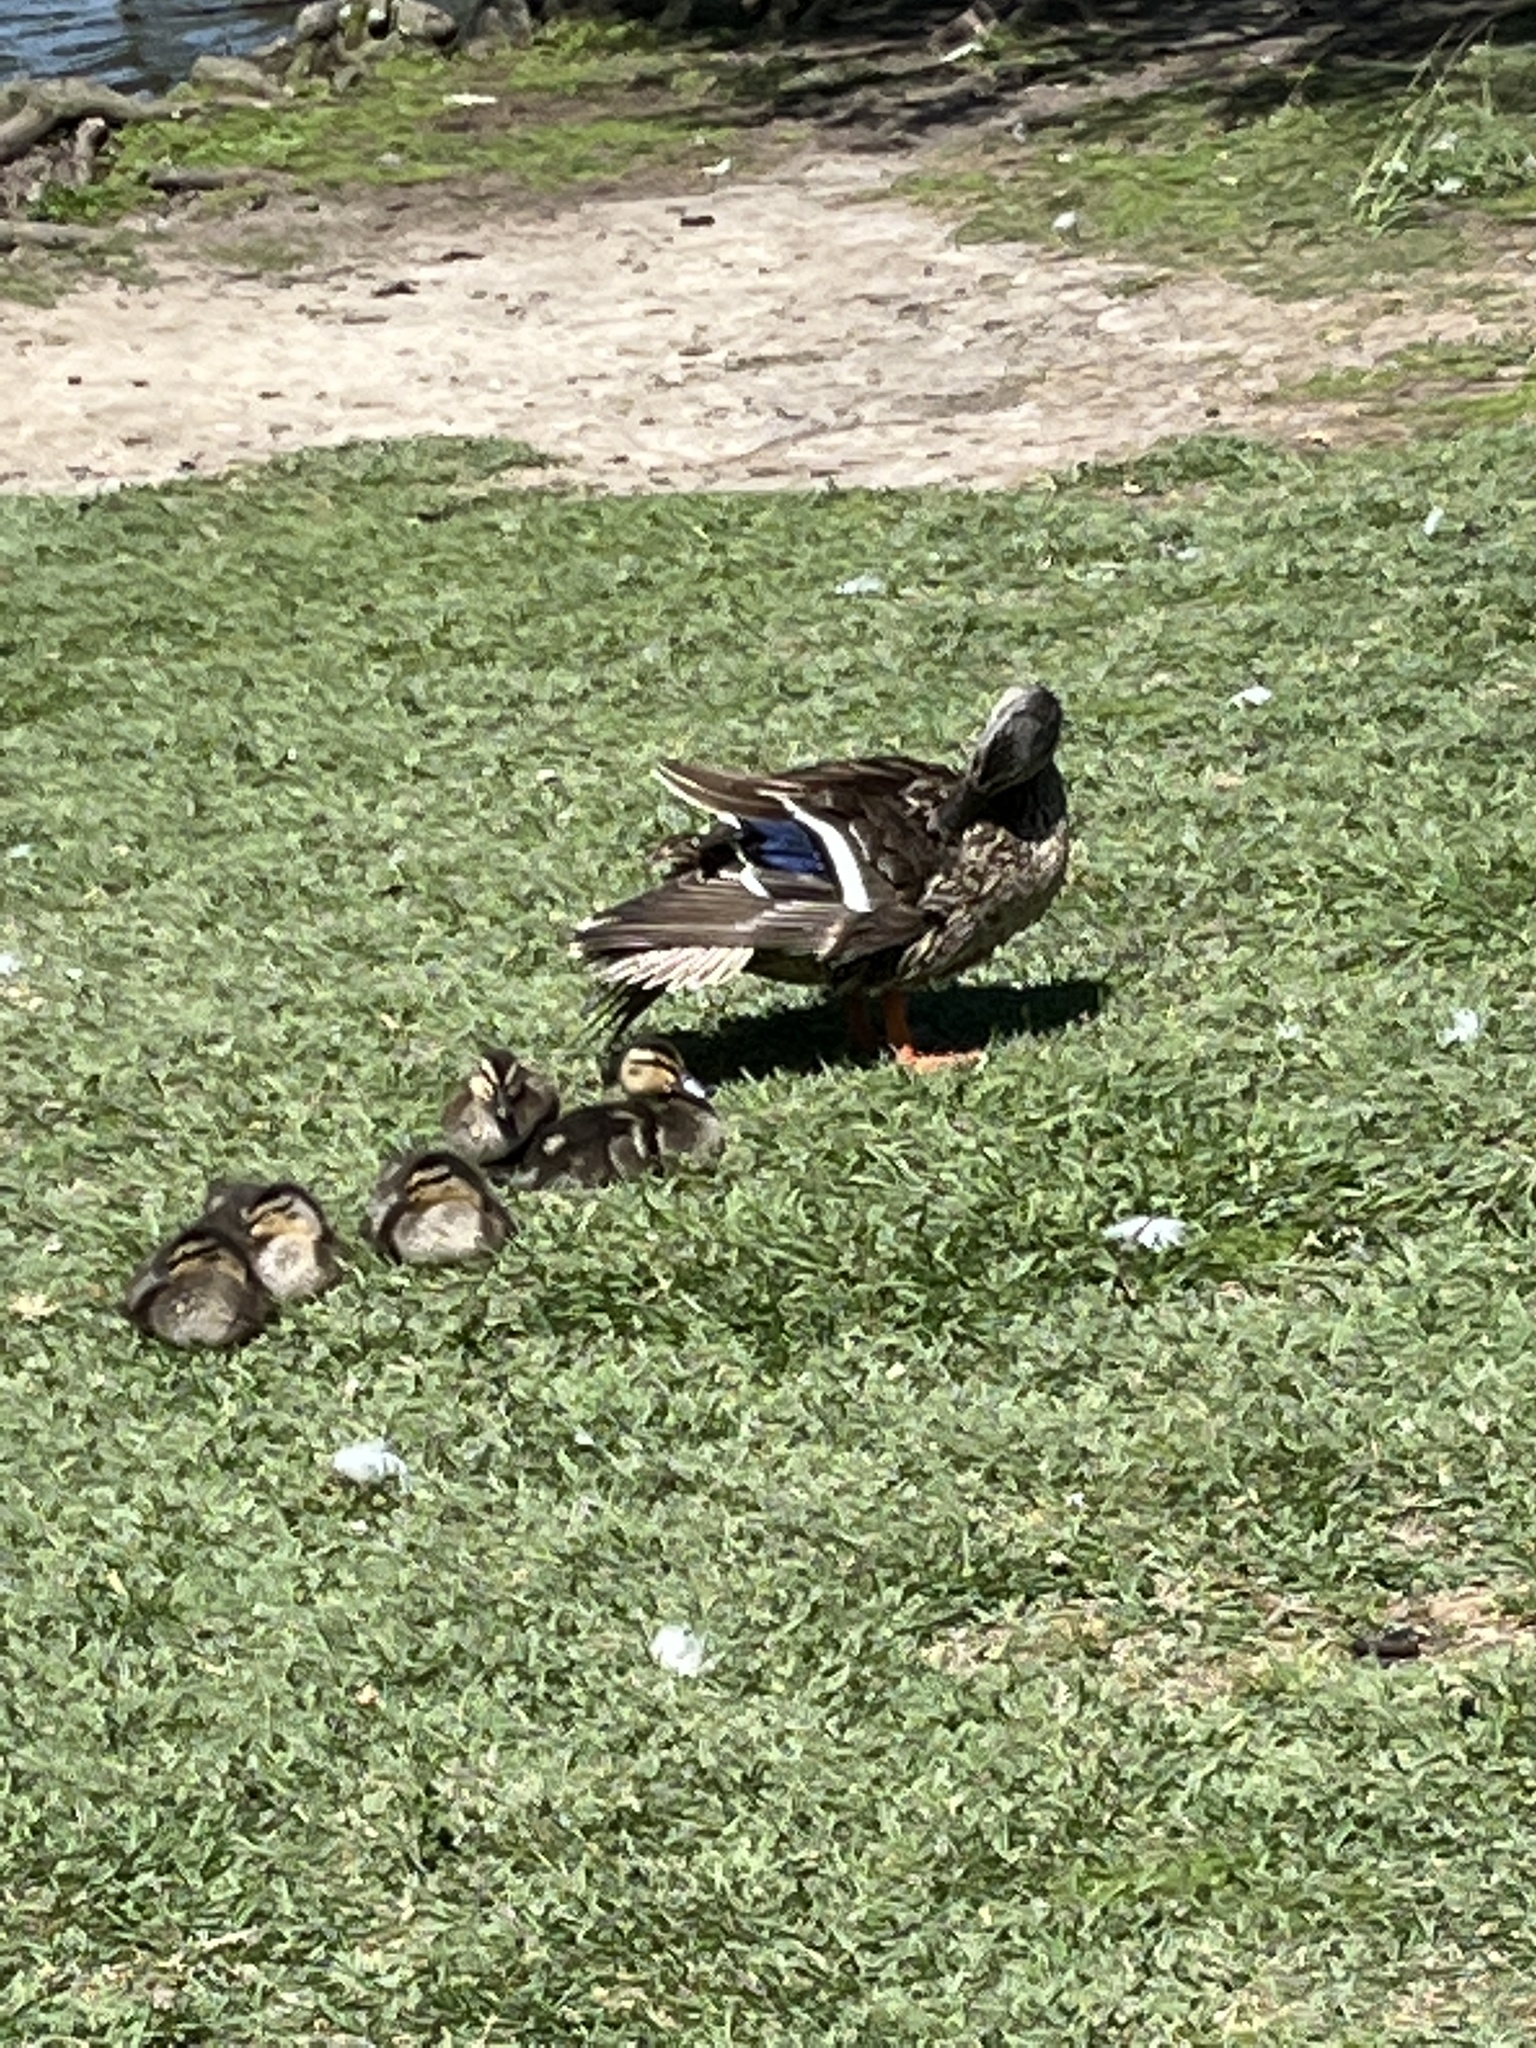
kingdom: Animalia
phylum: Chordata
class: Aves
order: Anseriformes
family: Anatidae
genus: Anas
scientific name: Anas platyrhynchos
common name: Mallard
